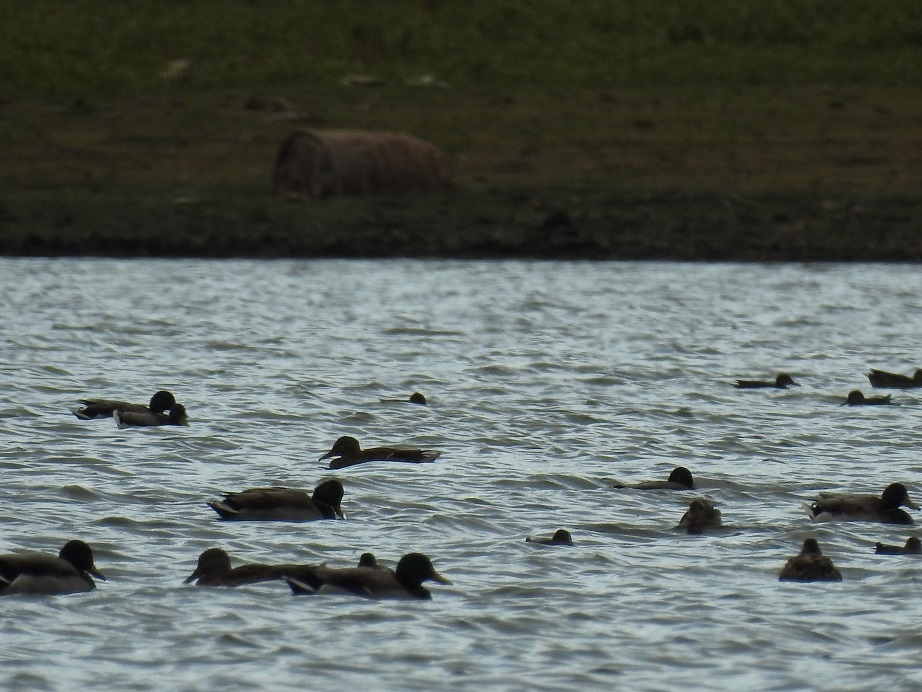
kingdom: Animalia
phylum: Chordata
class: Aves
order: Anseriformes
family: Anatidae
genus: Anas
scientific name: Anas platyrhynchos
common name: Mallard
